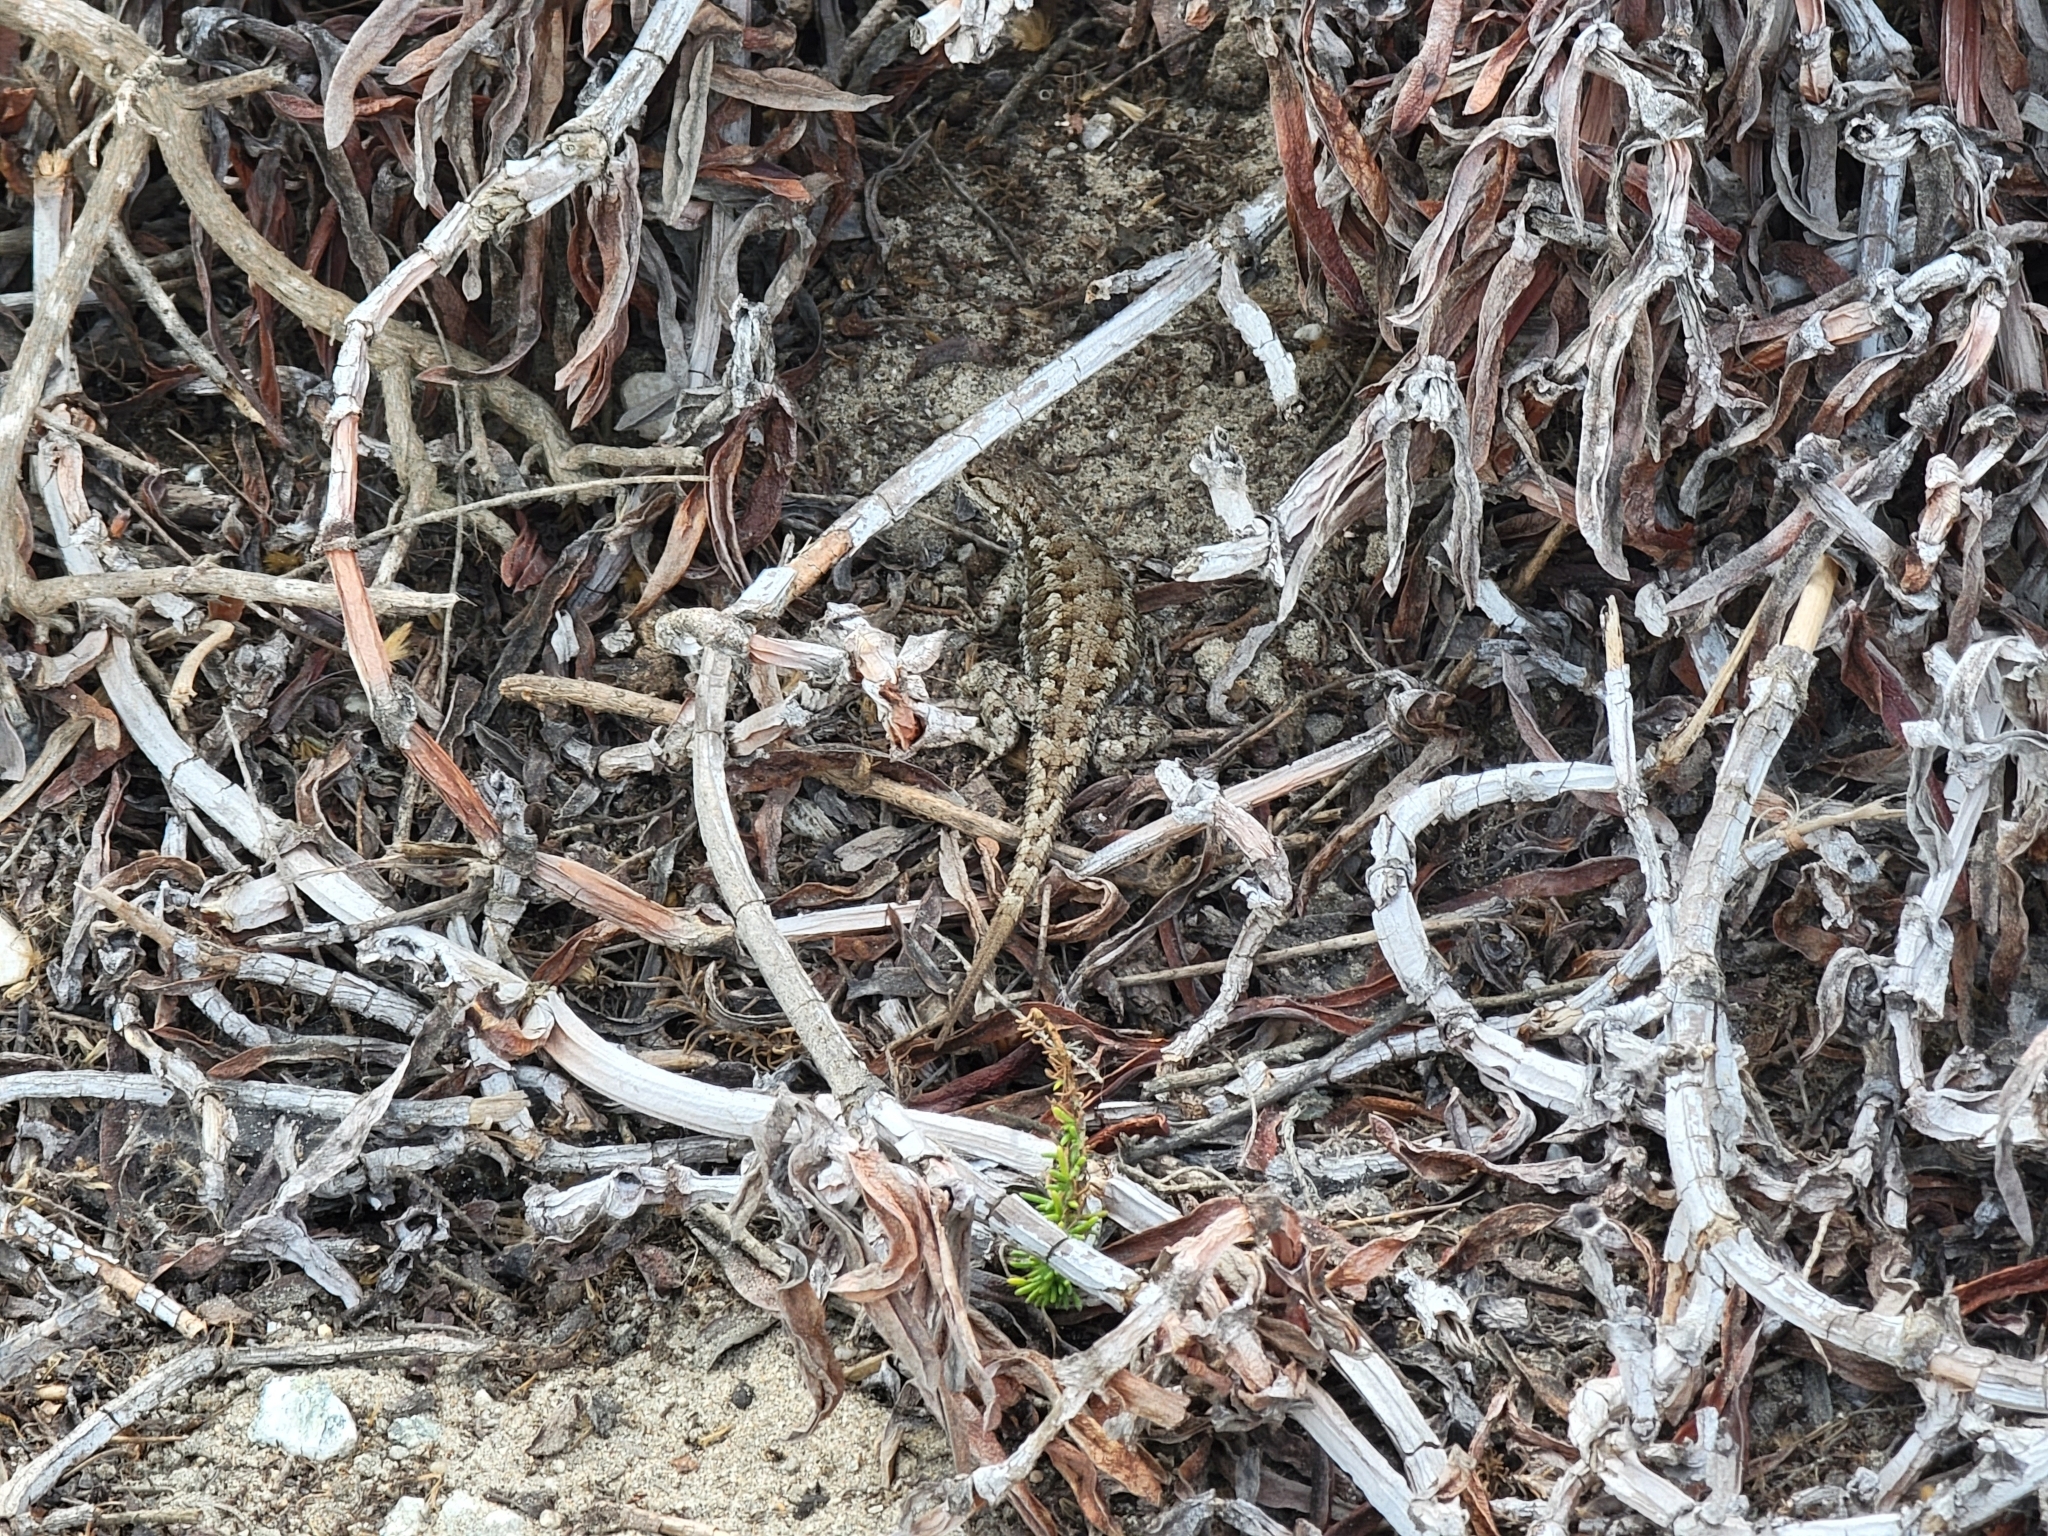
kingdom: Animalia
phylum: Chordata
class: Squamata
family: Phrynosomatidae
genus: Sceloporus
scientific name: Sceloporus occidentalis
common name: Western fence lizard
